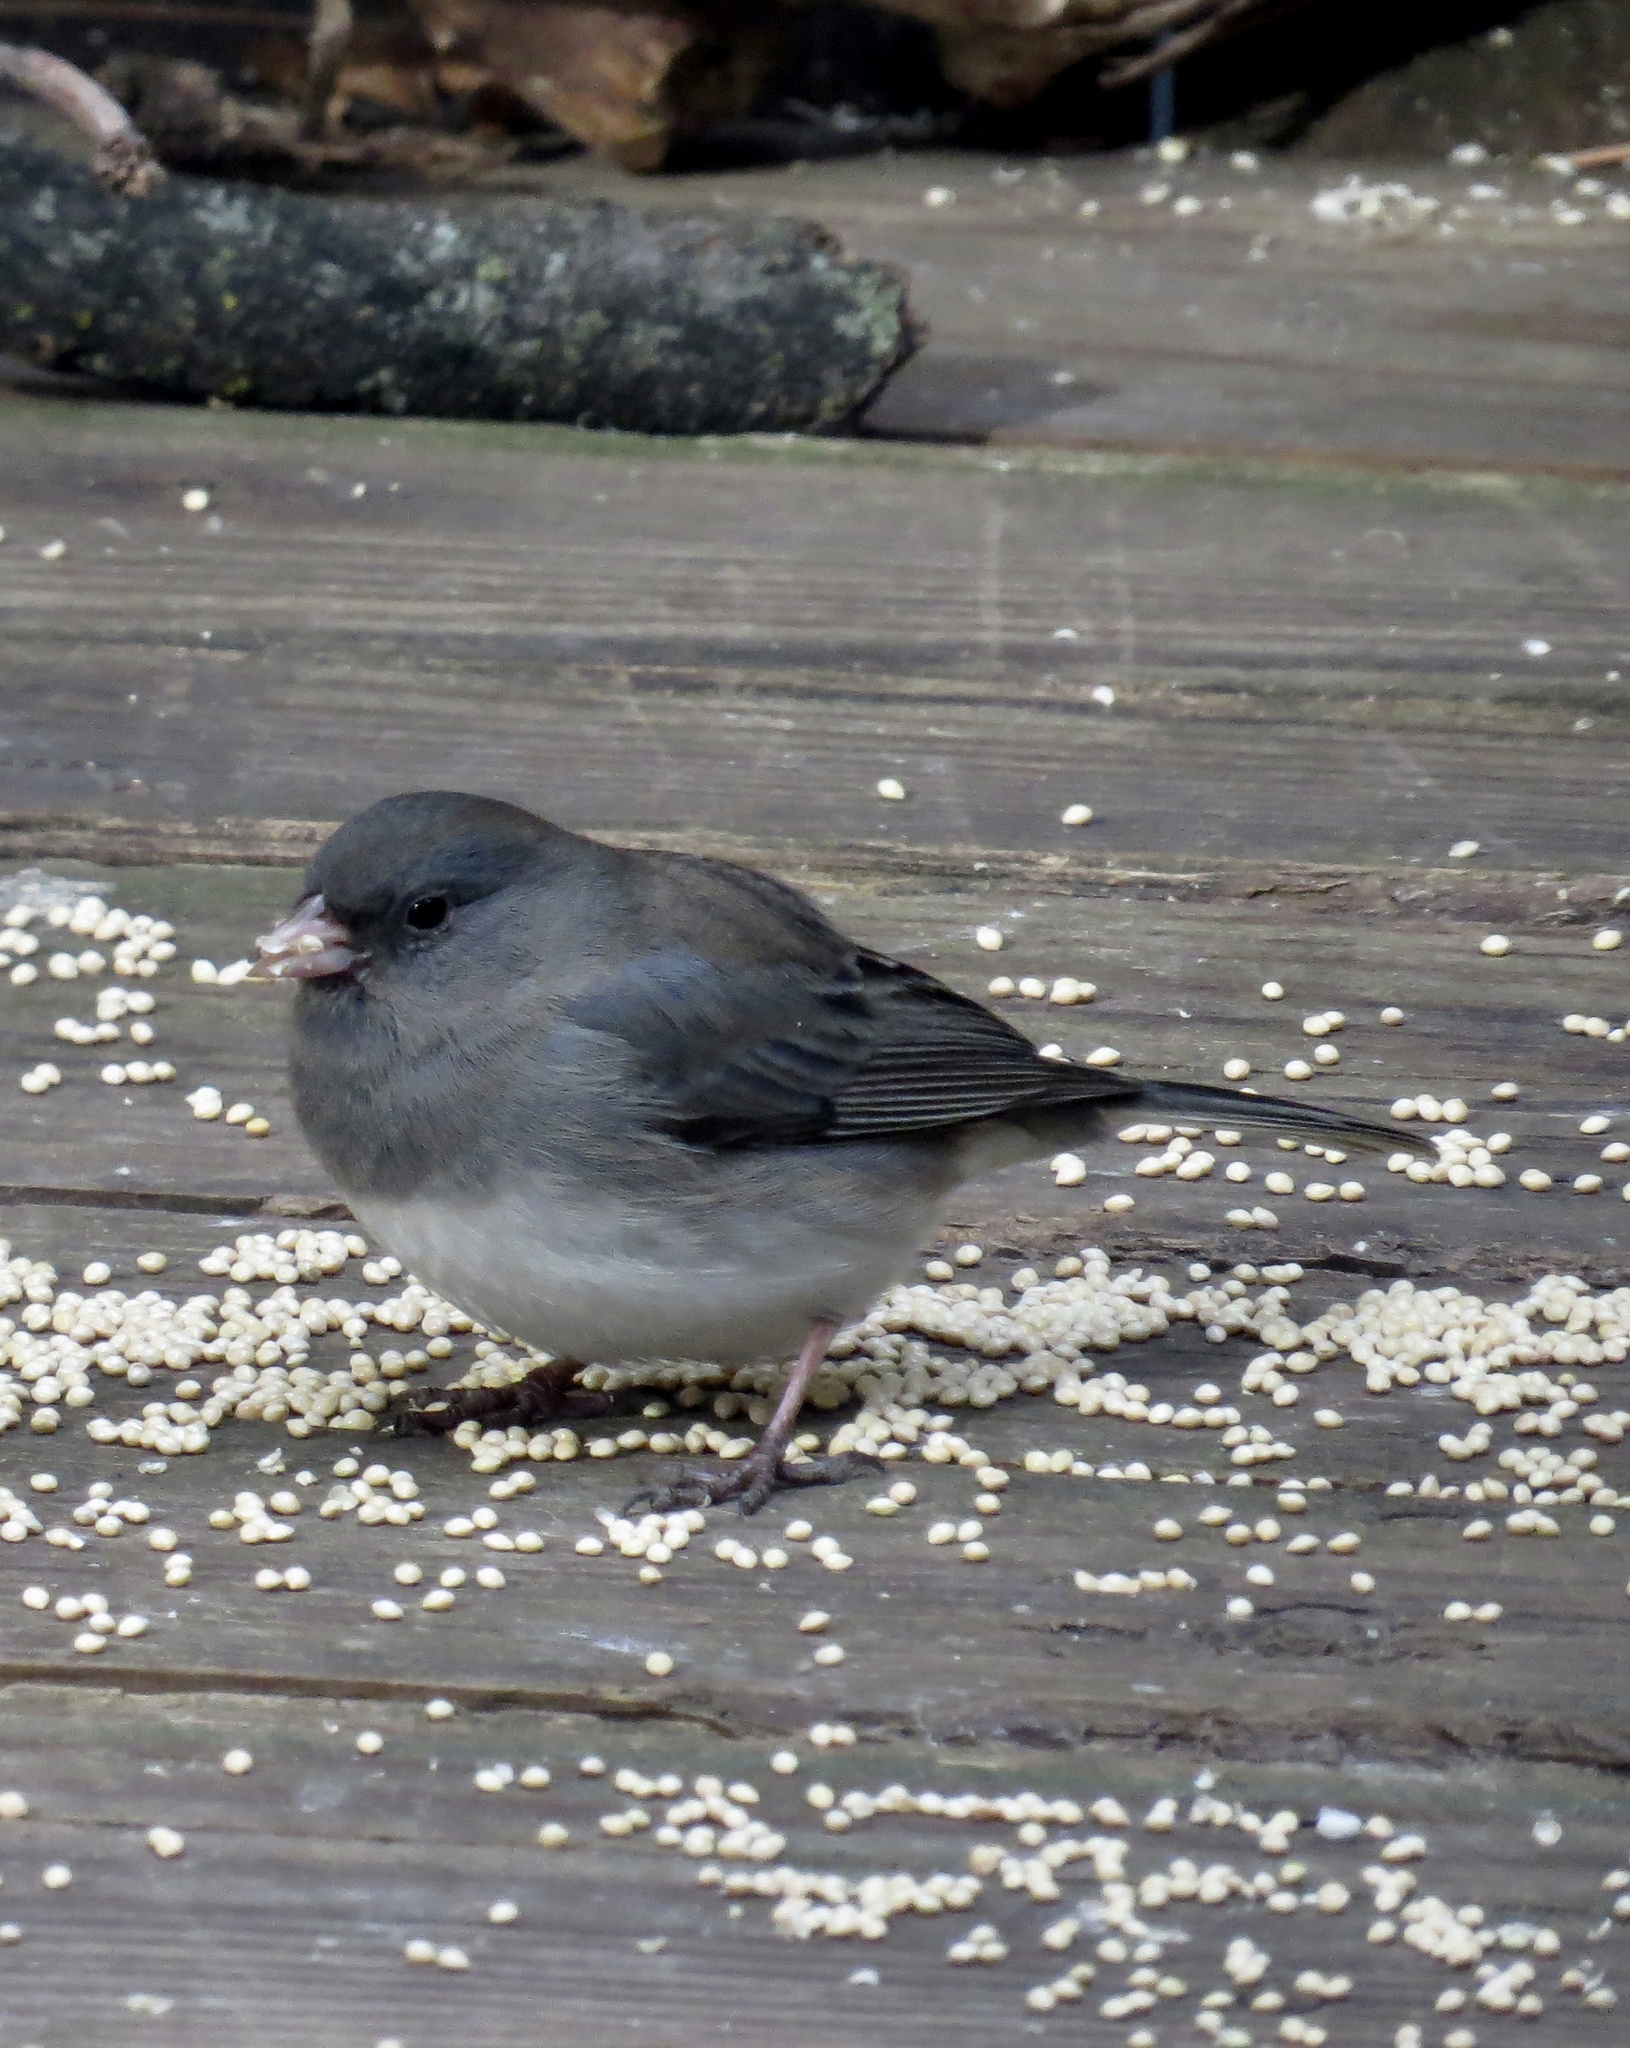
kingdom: Animalia
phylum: Chordata
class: Aves
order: Passeriformes
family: Passerellidae
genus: Junco
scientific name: Junco hyemalis
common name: Dark-eyed junco
